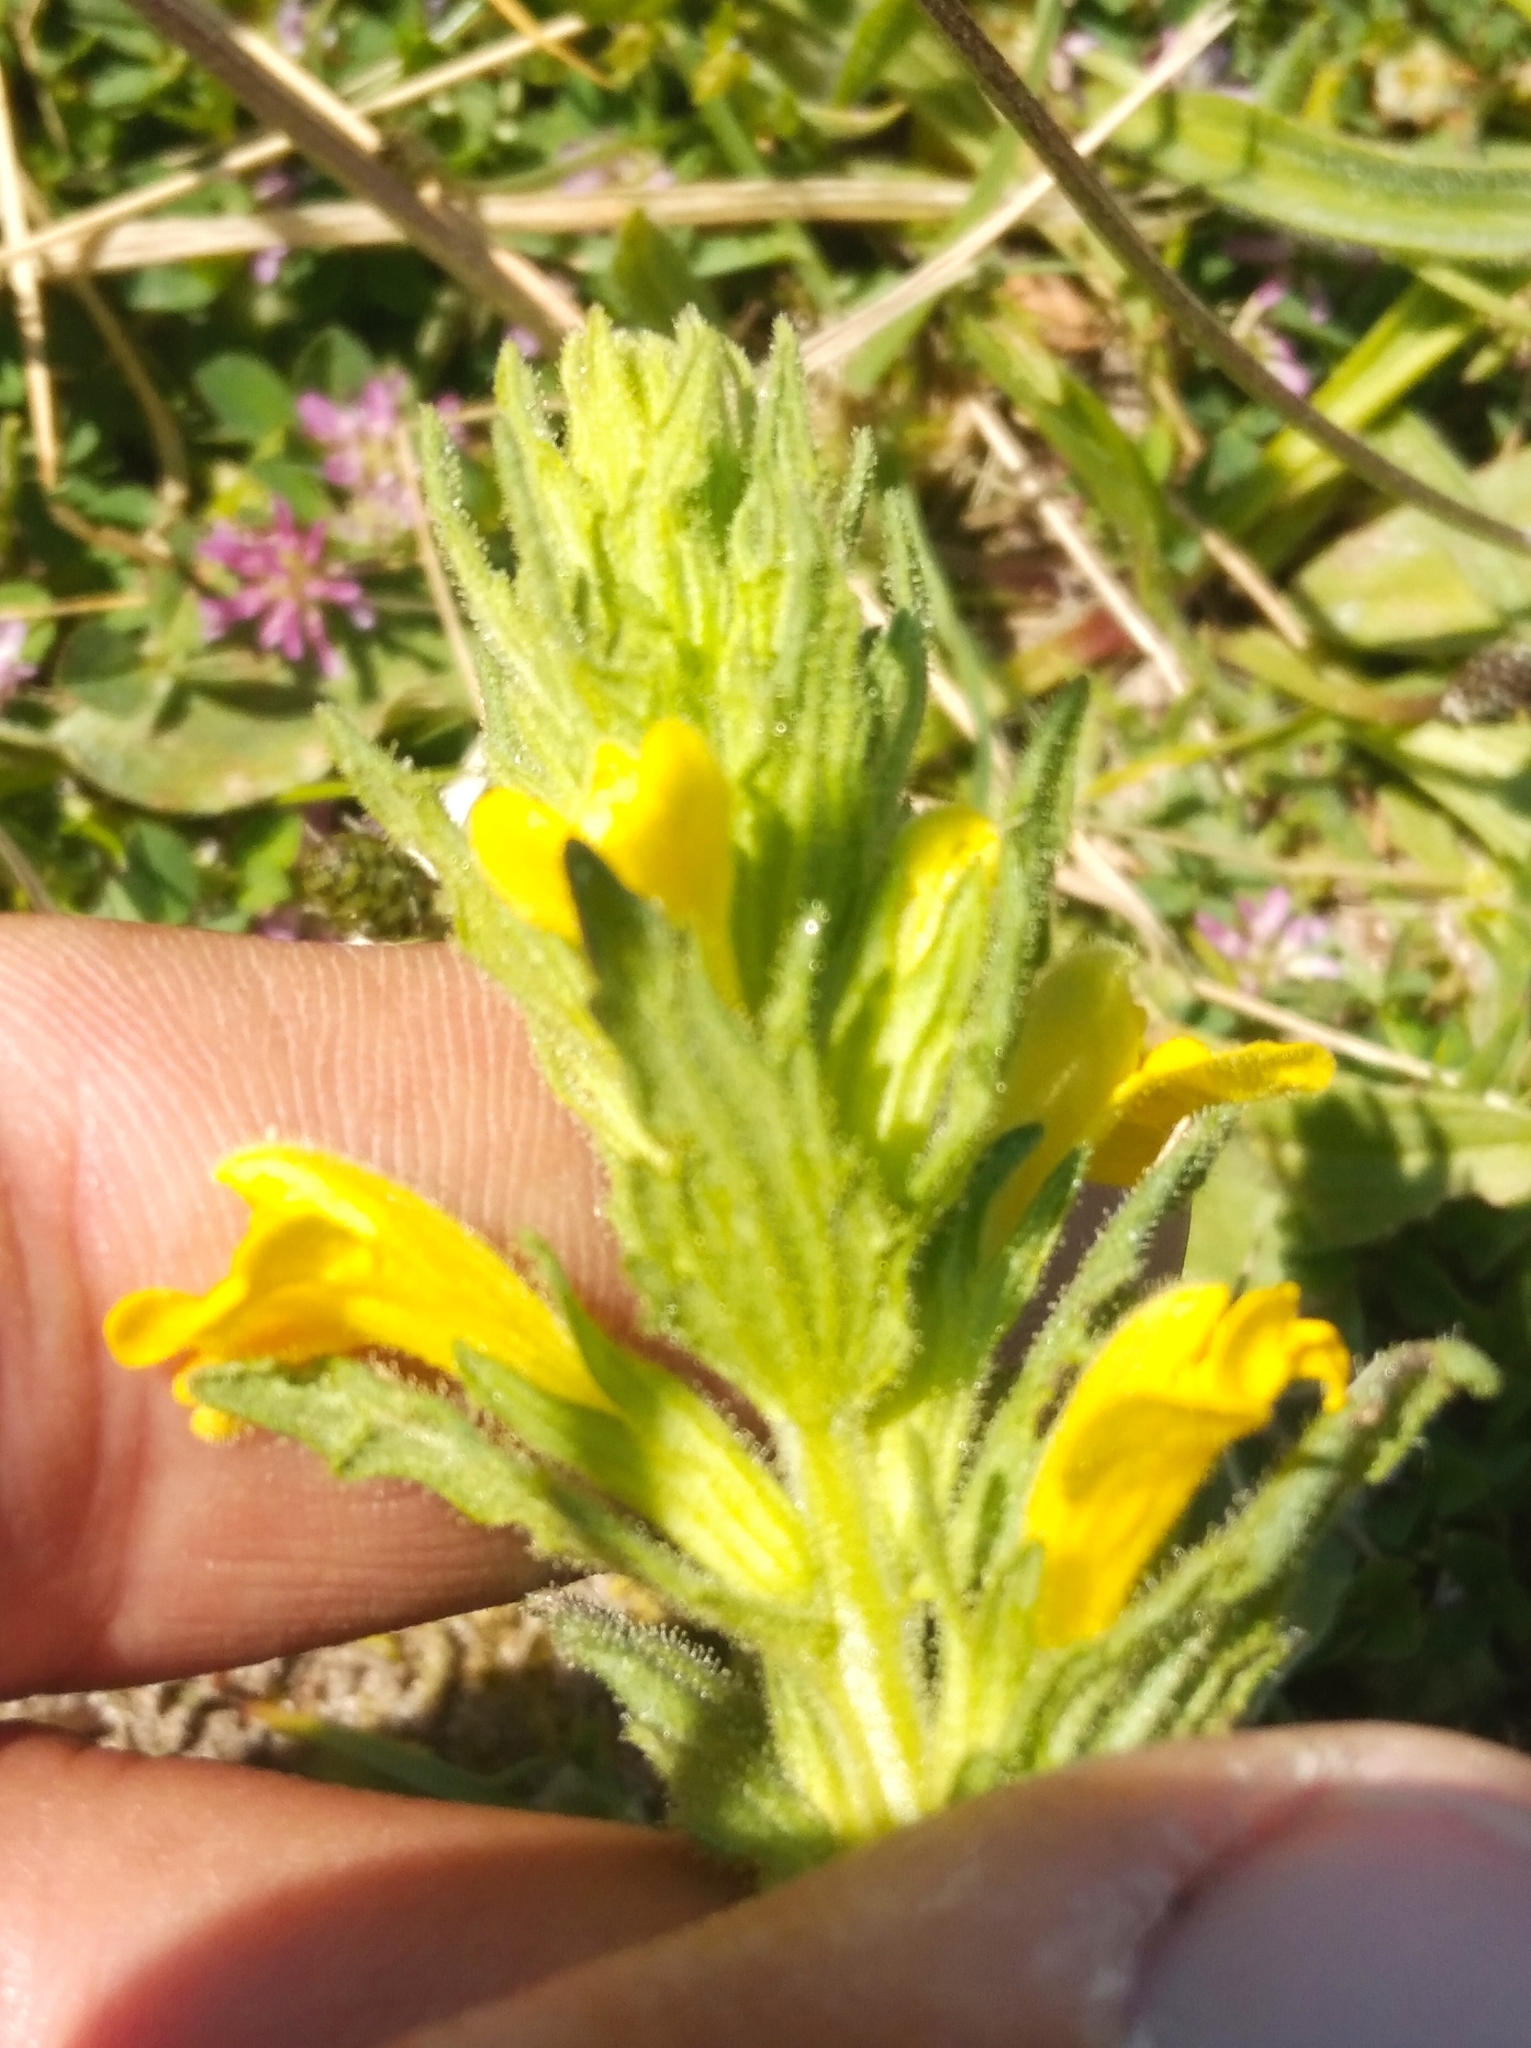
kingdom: Plantae
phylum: Tracheophyta
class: Magnoliopsida
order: Lamiales
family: Orobanchaceae
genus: Bellardia
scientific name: Bellardia viscosa
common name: Sticky parentucellia
